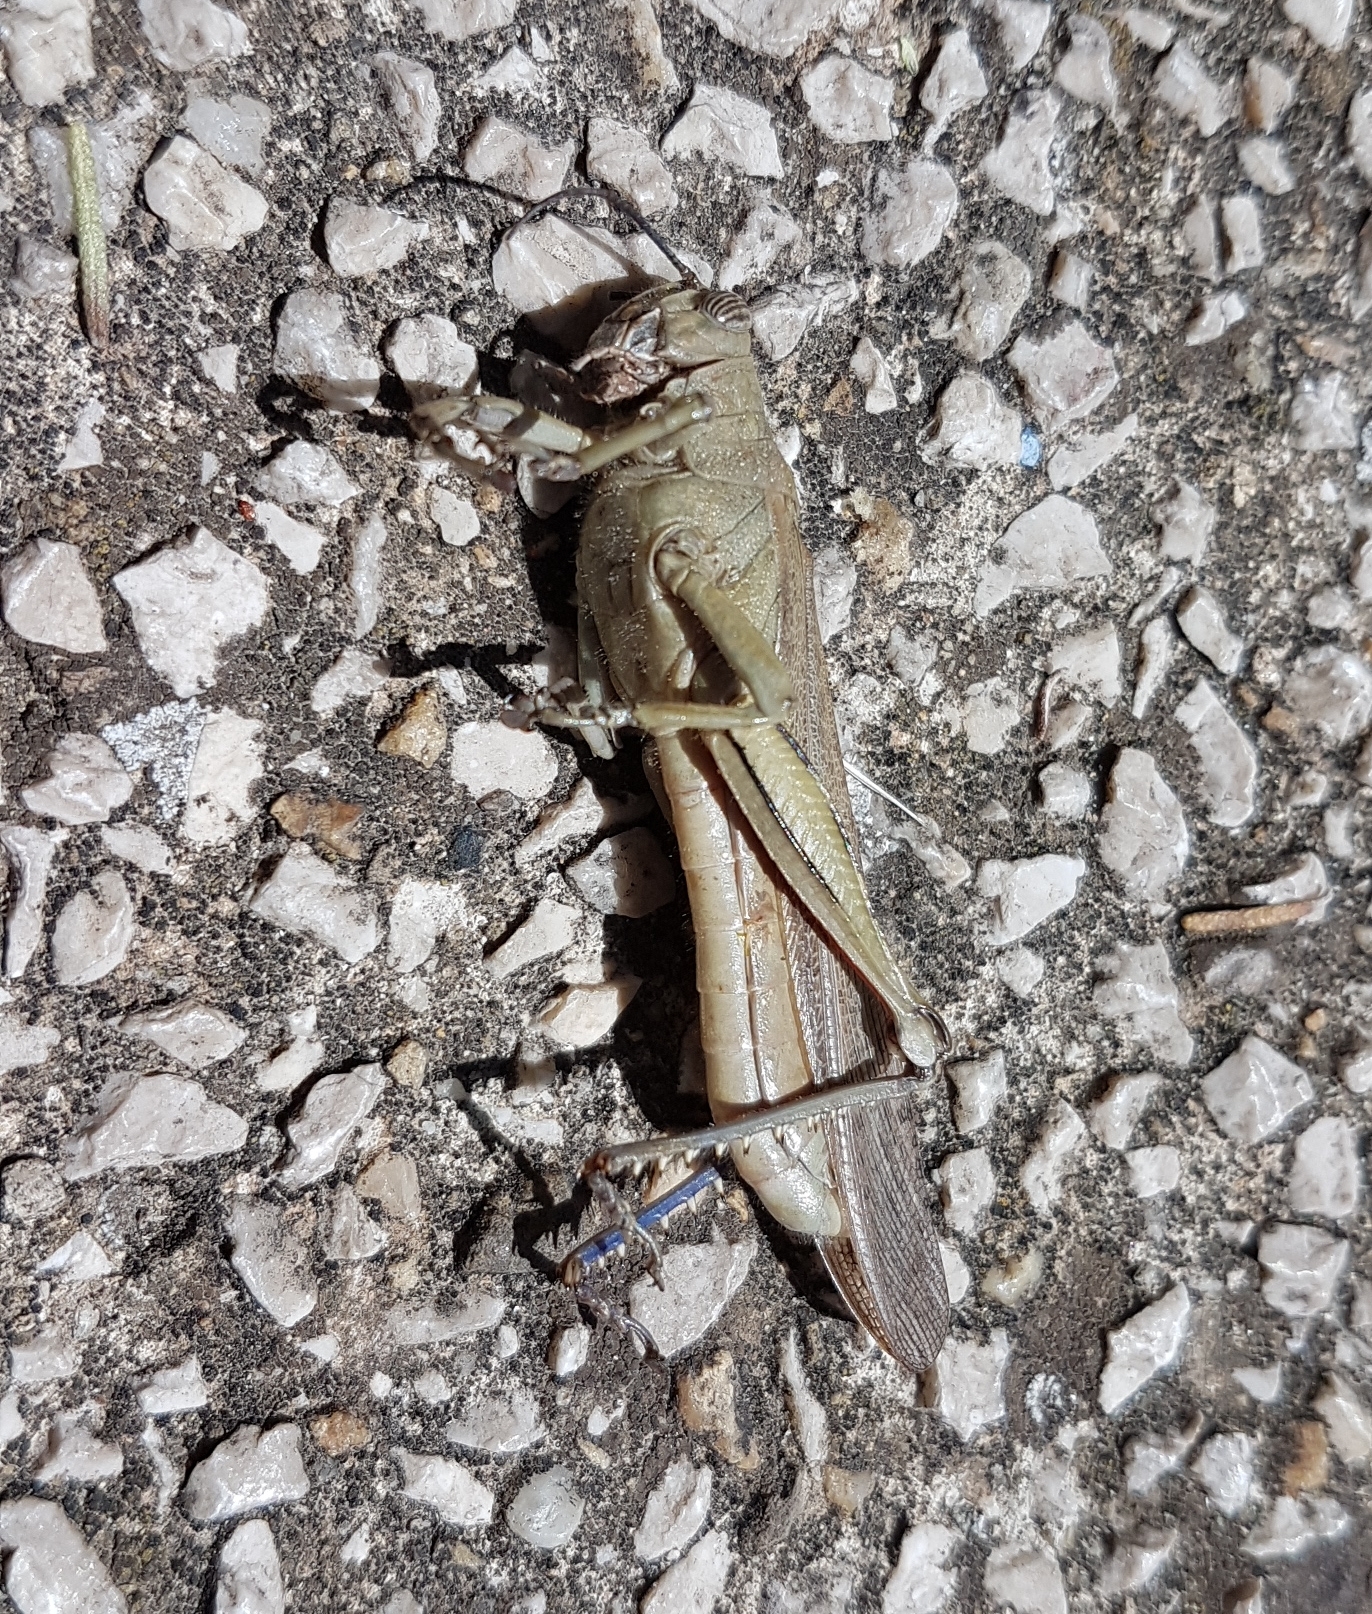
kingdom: Animalia
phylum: Arthropoda
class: Insecta
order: Orthoptera
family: Acrididae
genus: Anacridium
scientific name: Anacridium aegyptium
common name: Egyptian grasshopper
